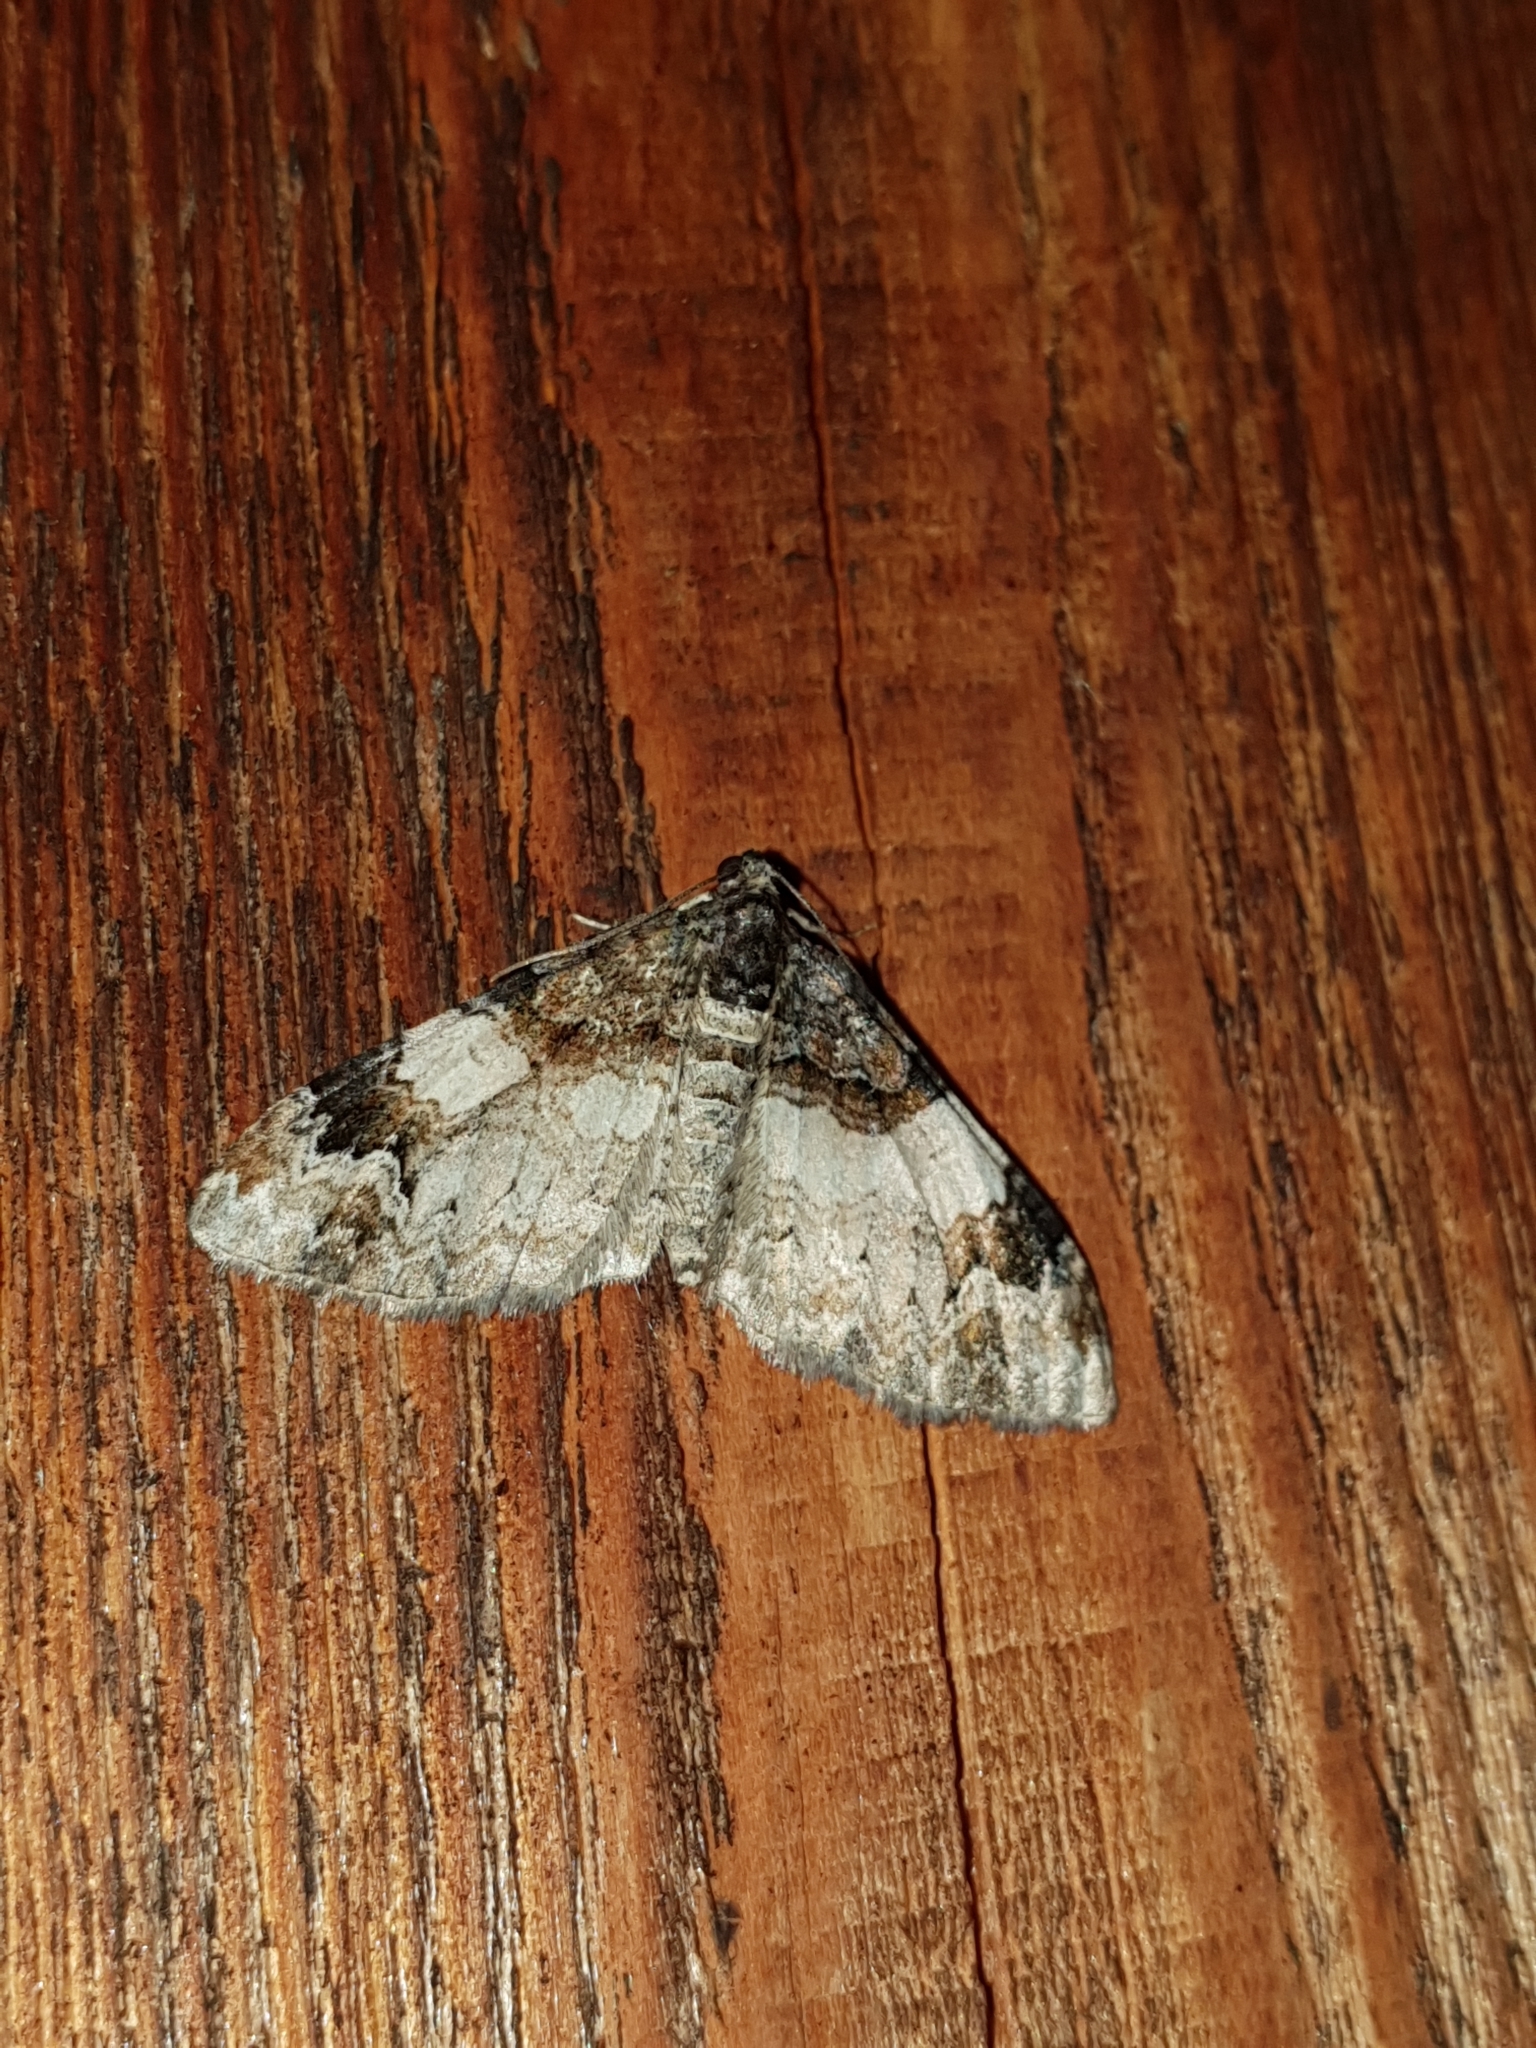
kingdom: Animalia
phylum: Arthropoda
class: Insecta
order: Lepidoptera
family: Geometridae
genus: Catarhoe
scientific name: Catarhoe cuculata
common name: Royal mantle
